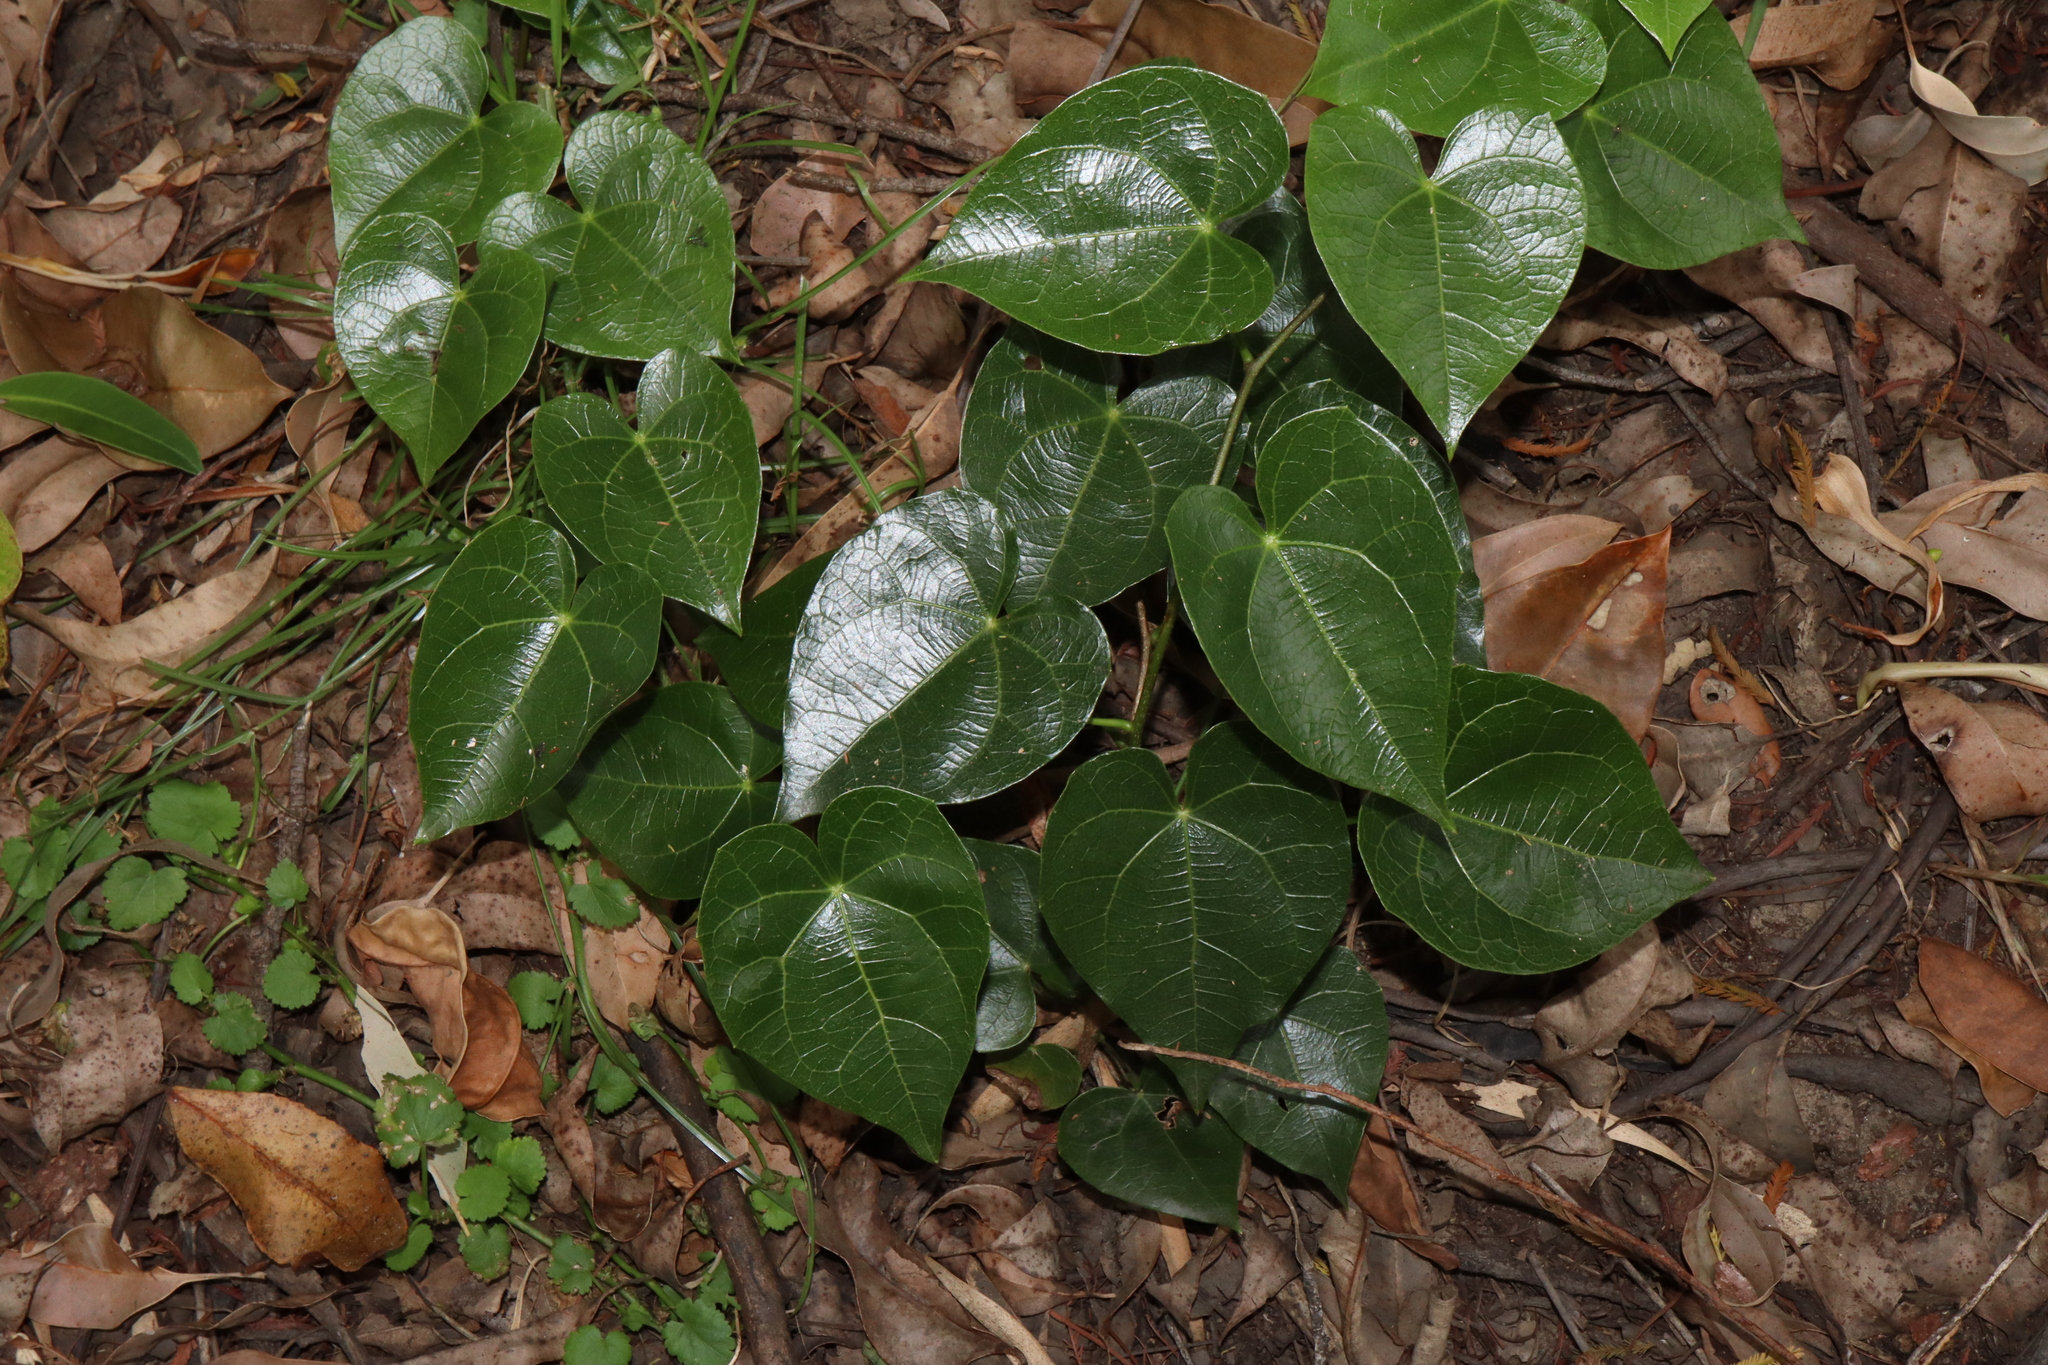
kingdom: Plantae
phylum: Tracheophyta
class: Magnoliopsida
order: Ranunculales
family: Menispermaceae
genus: Sarcopetalum
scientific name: Sarcopetalum harveyanum
